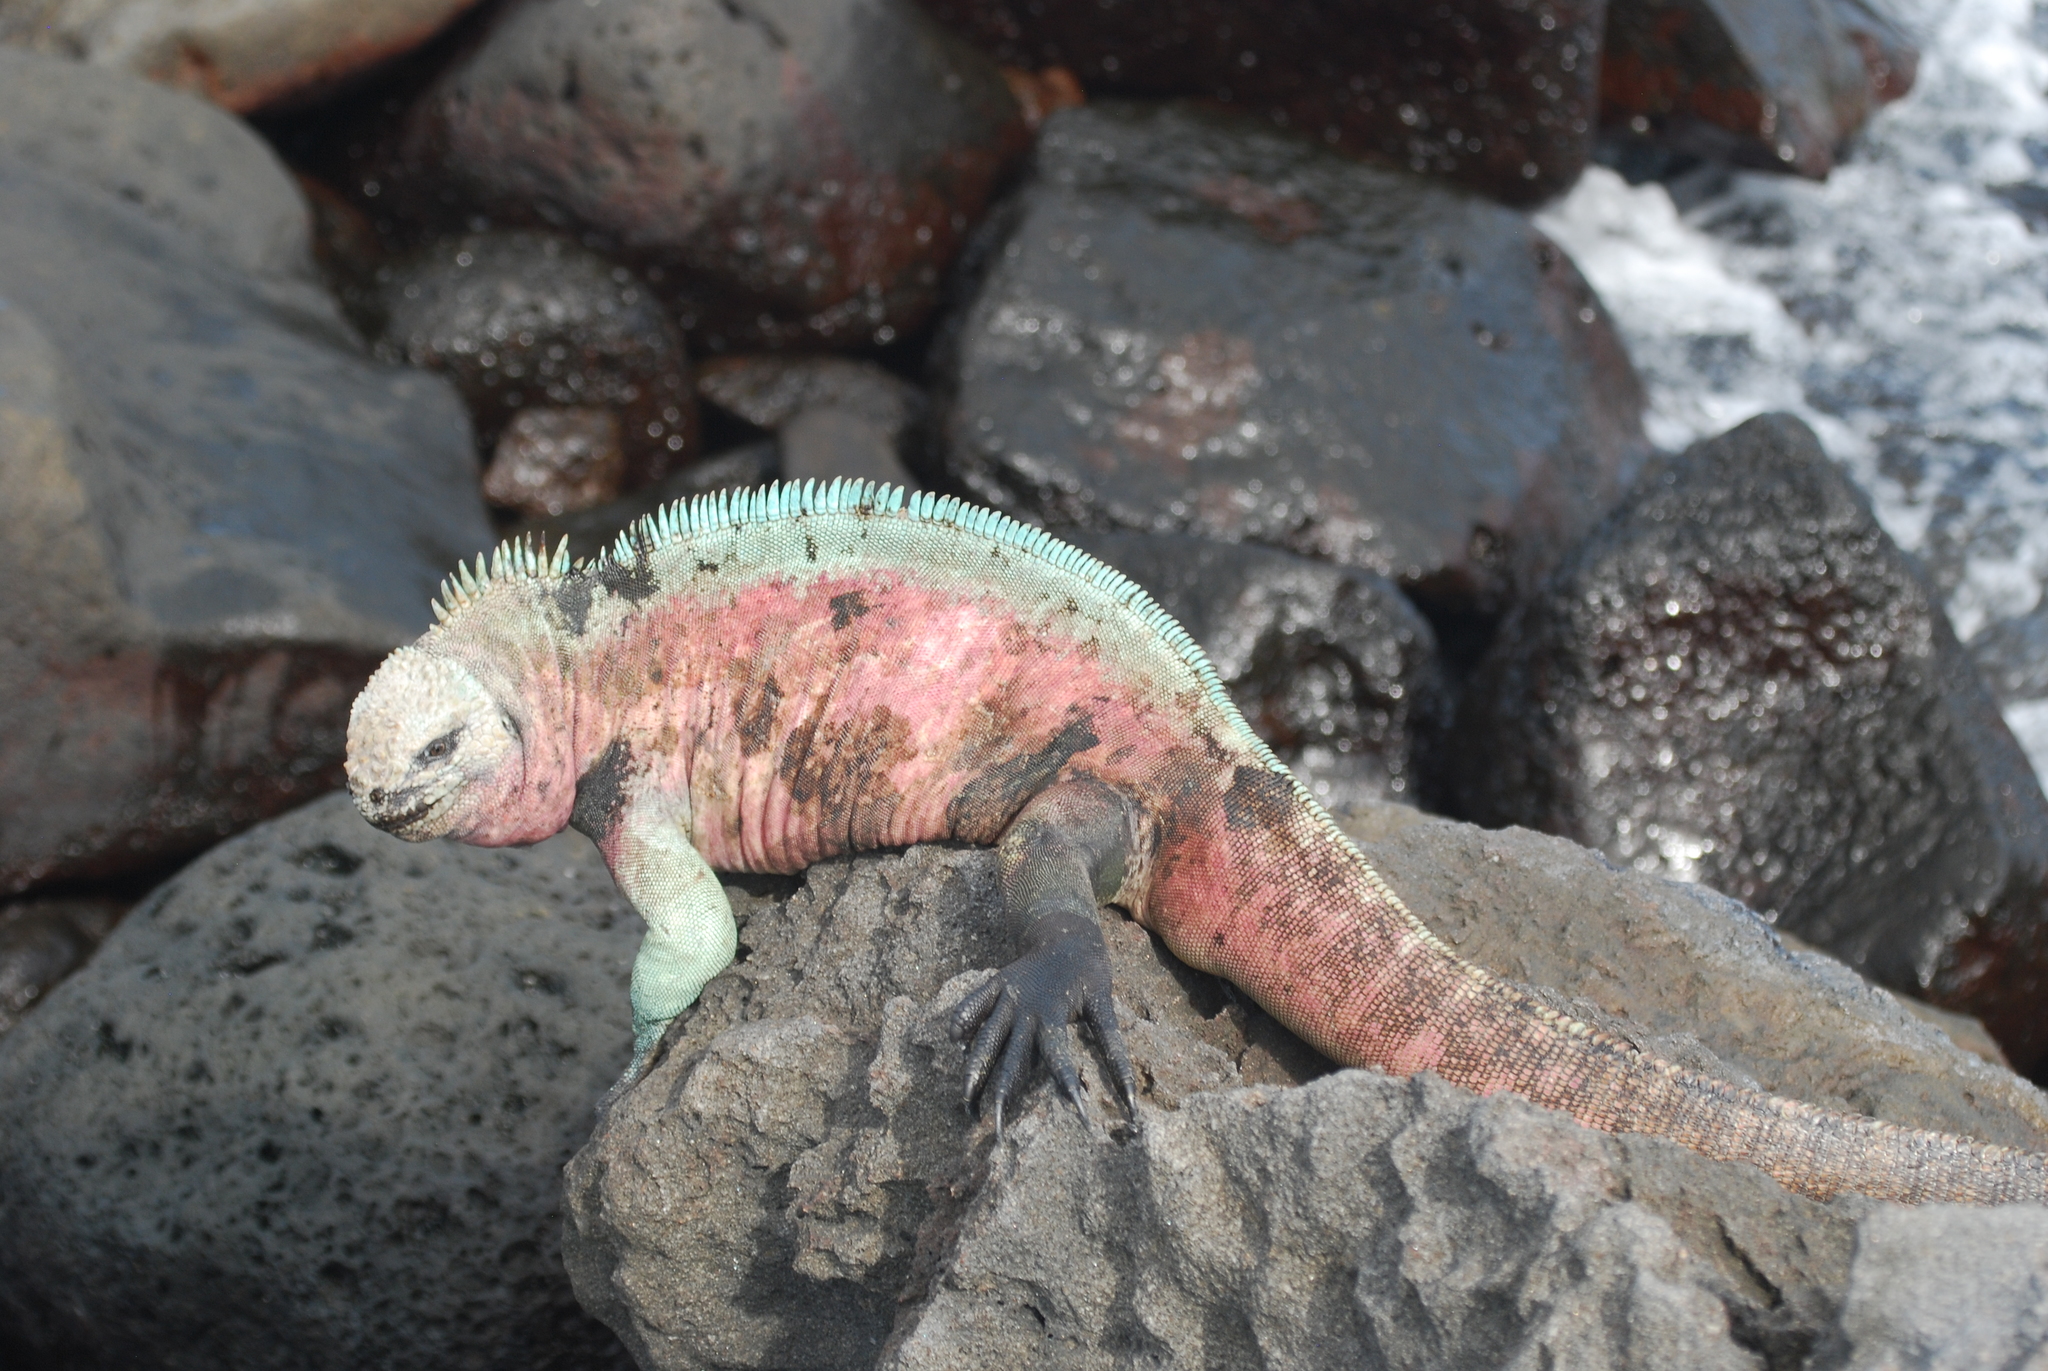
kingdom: Animalia
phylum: Chordata
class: Squamata
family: Iguanidae
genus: Amblyrhynchus
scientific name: Amblyrhynchus cristatus
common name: Marine iguana
